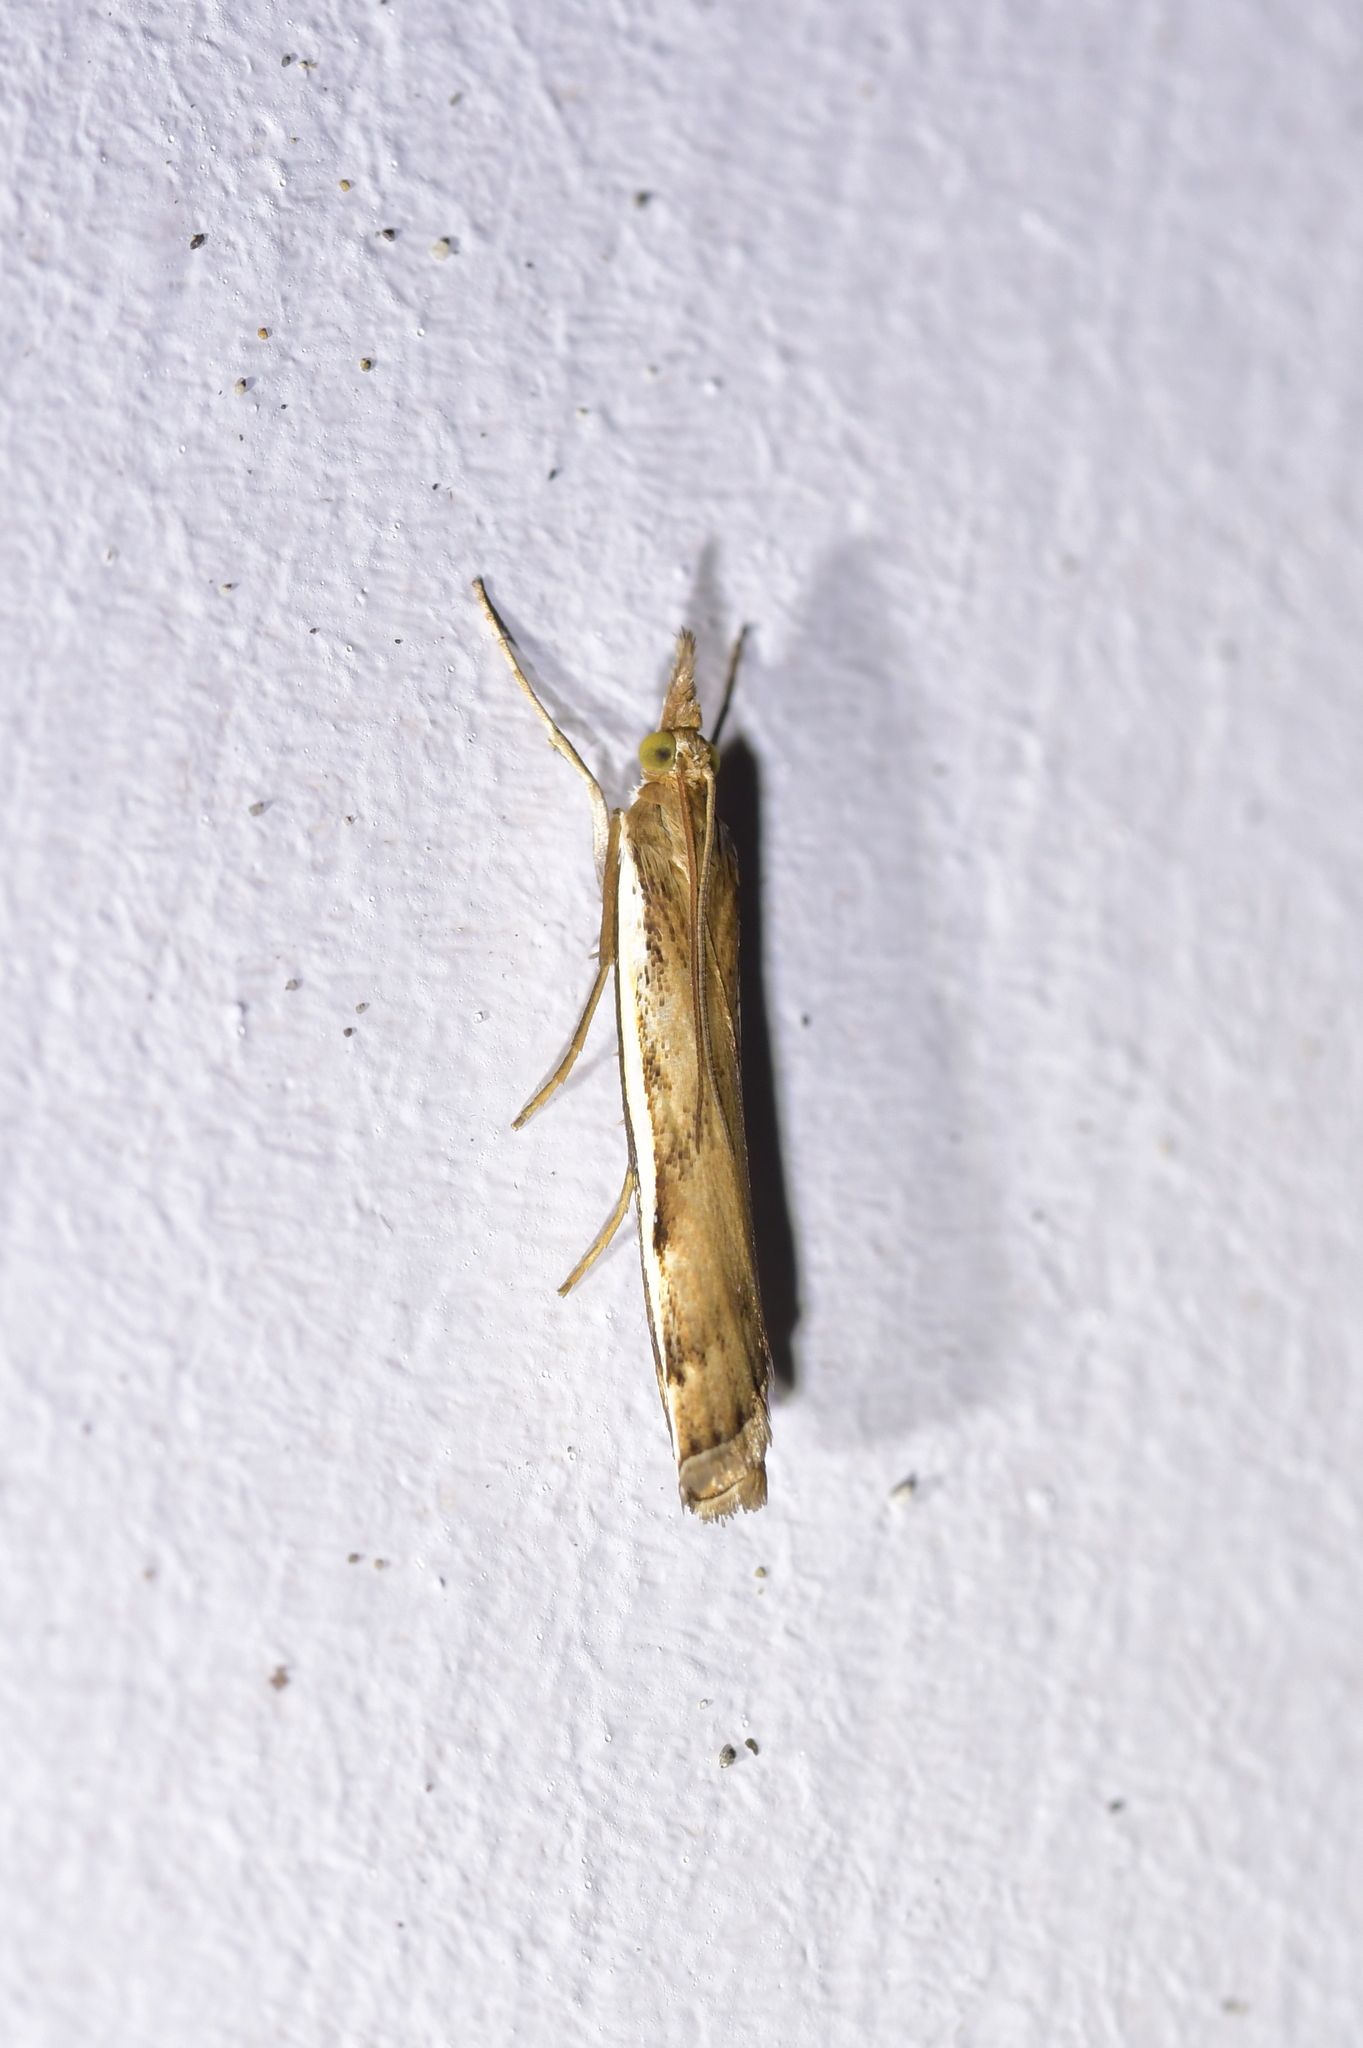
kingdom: Animalia
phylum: Arthropoda
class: Insecta
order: Lepidoptera
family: Crambidae
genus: Orocrambus
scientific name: Orocrambus flexuosellus
